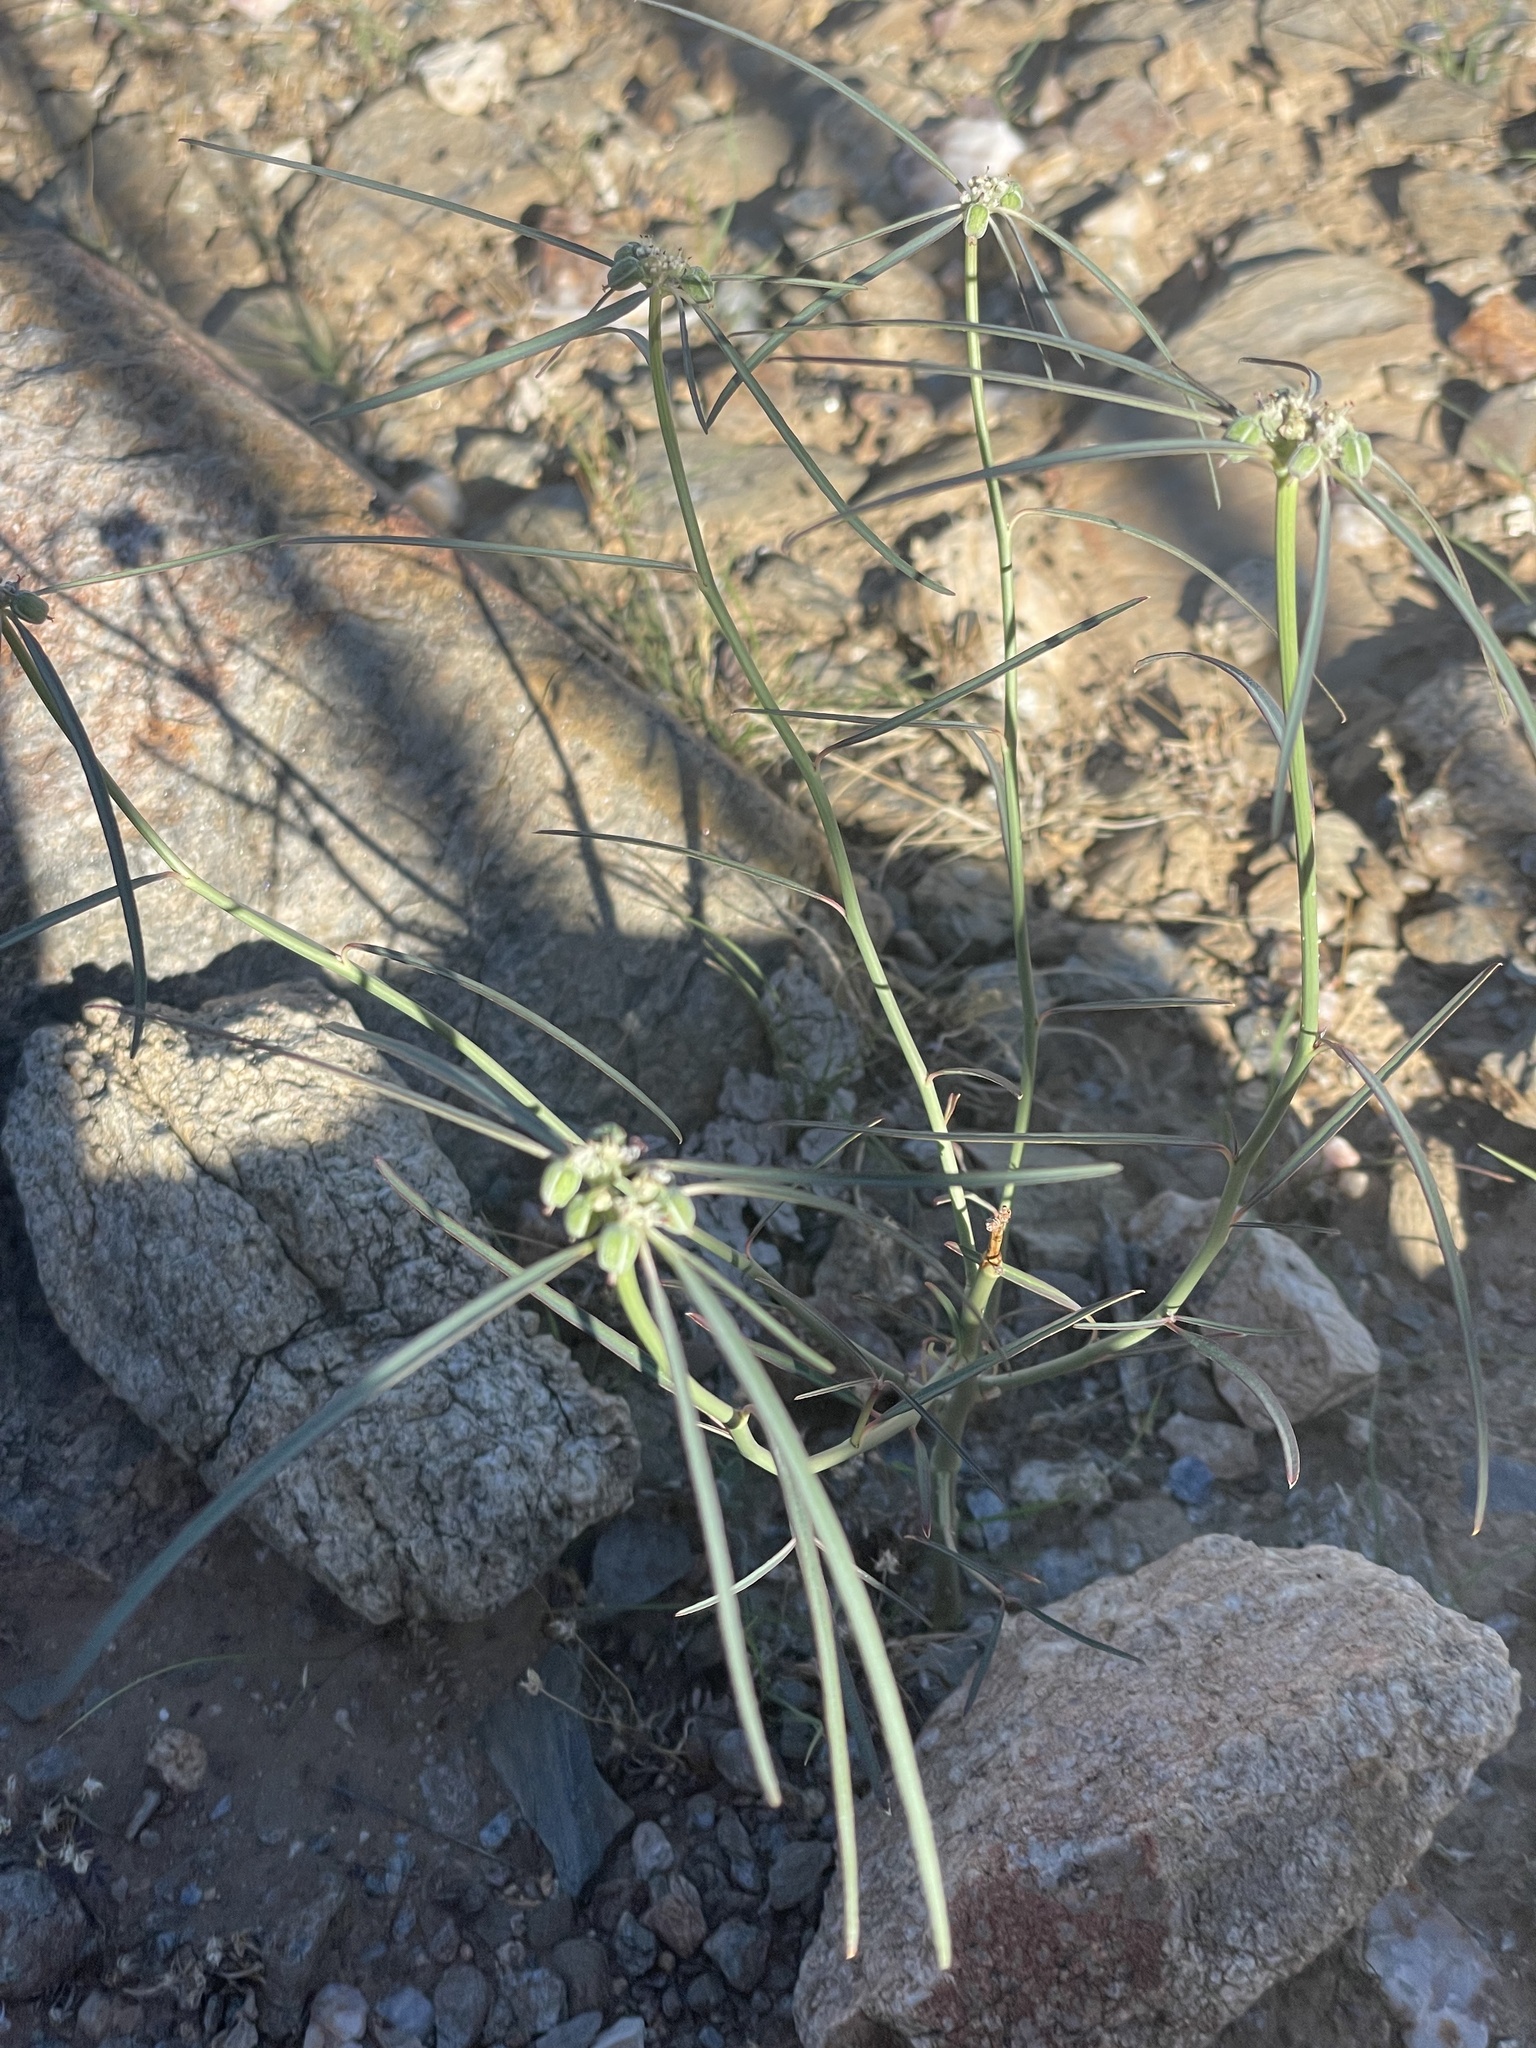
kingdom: Plantae
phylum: Tracheophyta
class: Magnoliopsida
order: Malpighiales
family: Euphorbiaceae
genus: Euphorbia
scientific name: Euphorbia eriantha
